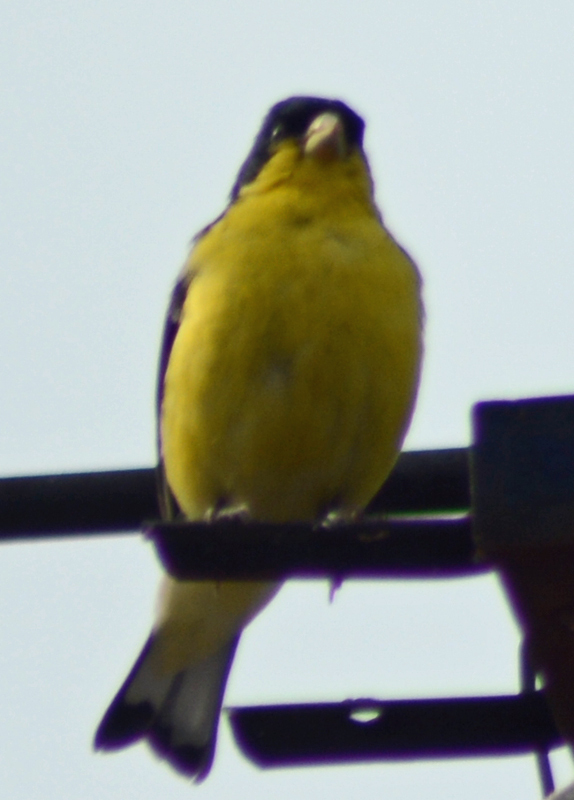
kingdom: Animalia
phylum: Chordata
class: Aves
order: Passeriformes
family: Fringillidae
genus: Spinus
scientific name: Spinus psaltria
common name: Lesser goldfinch
